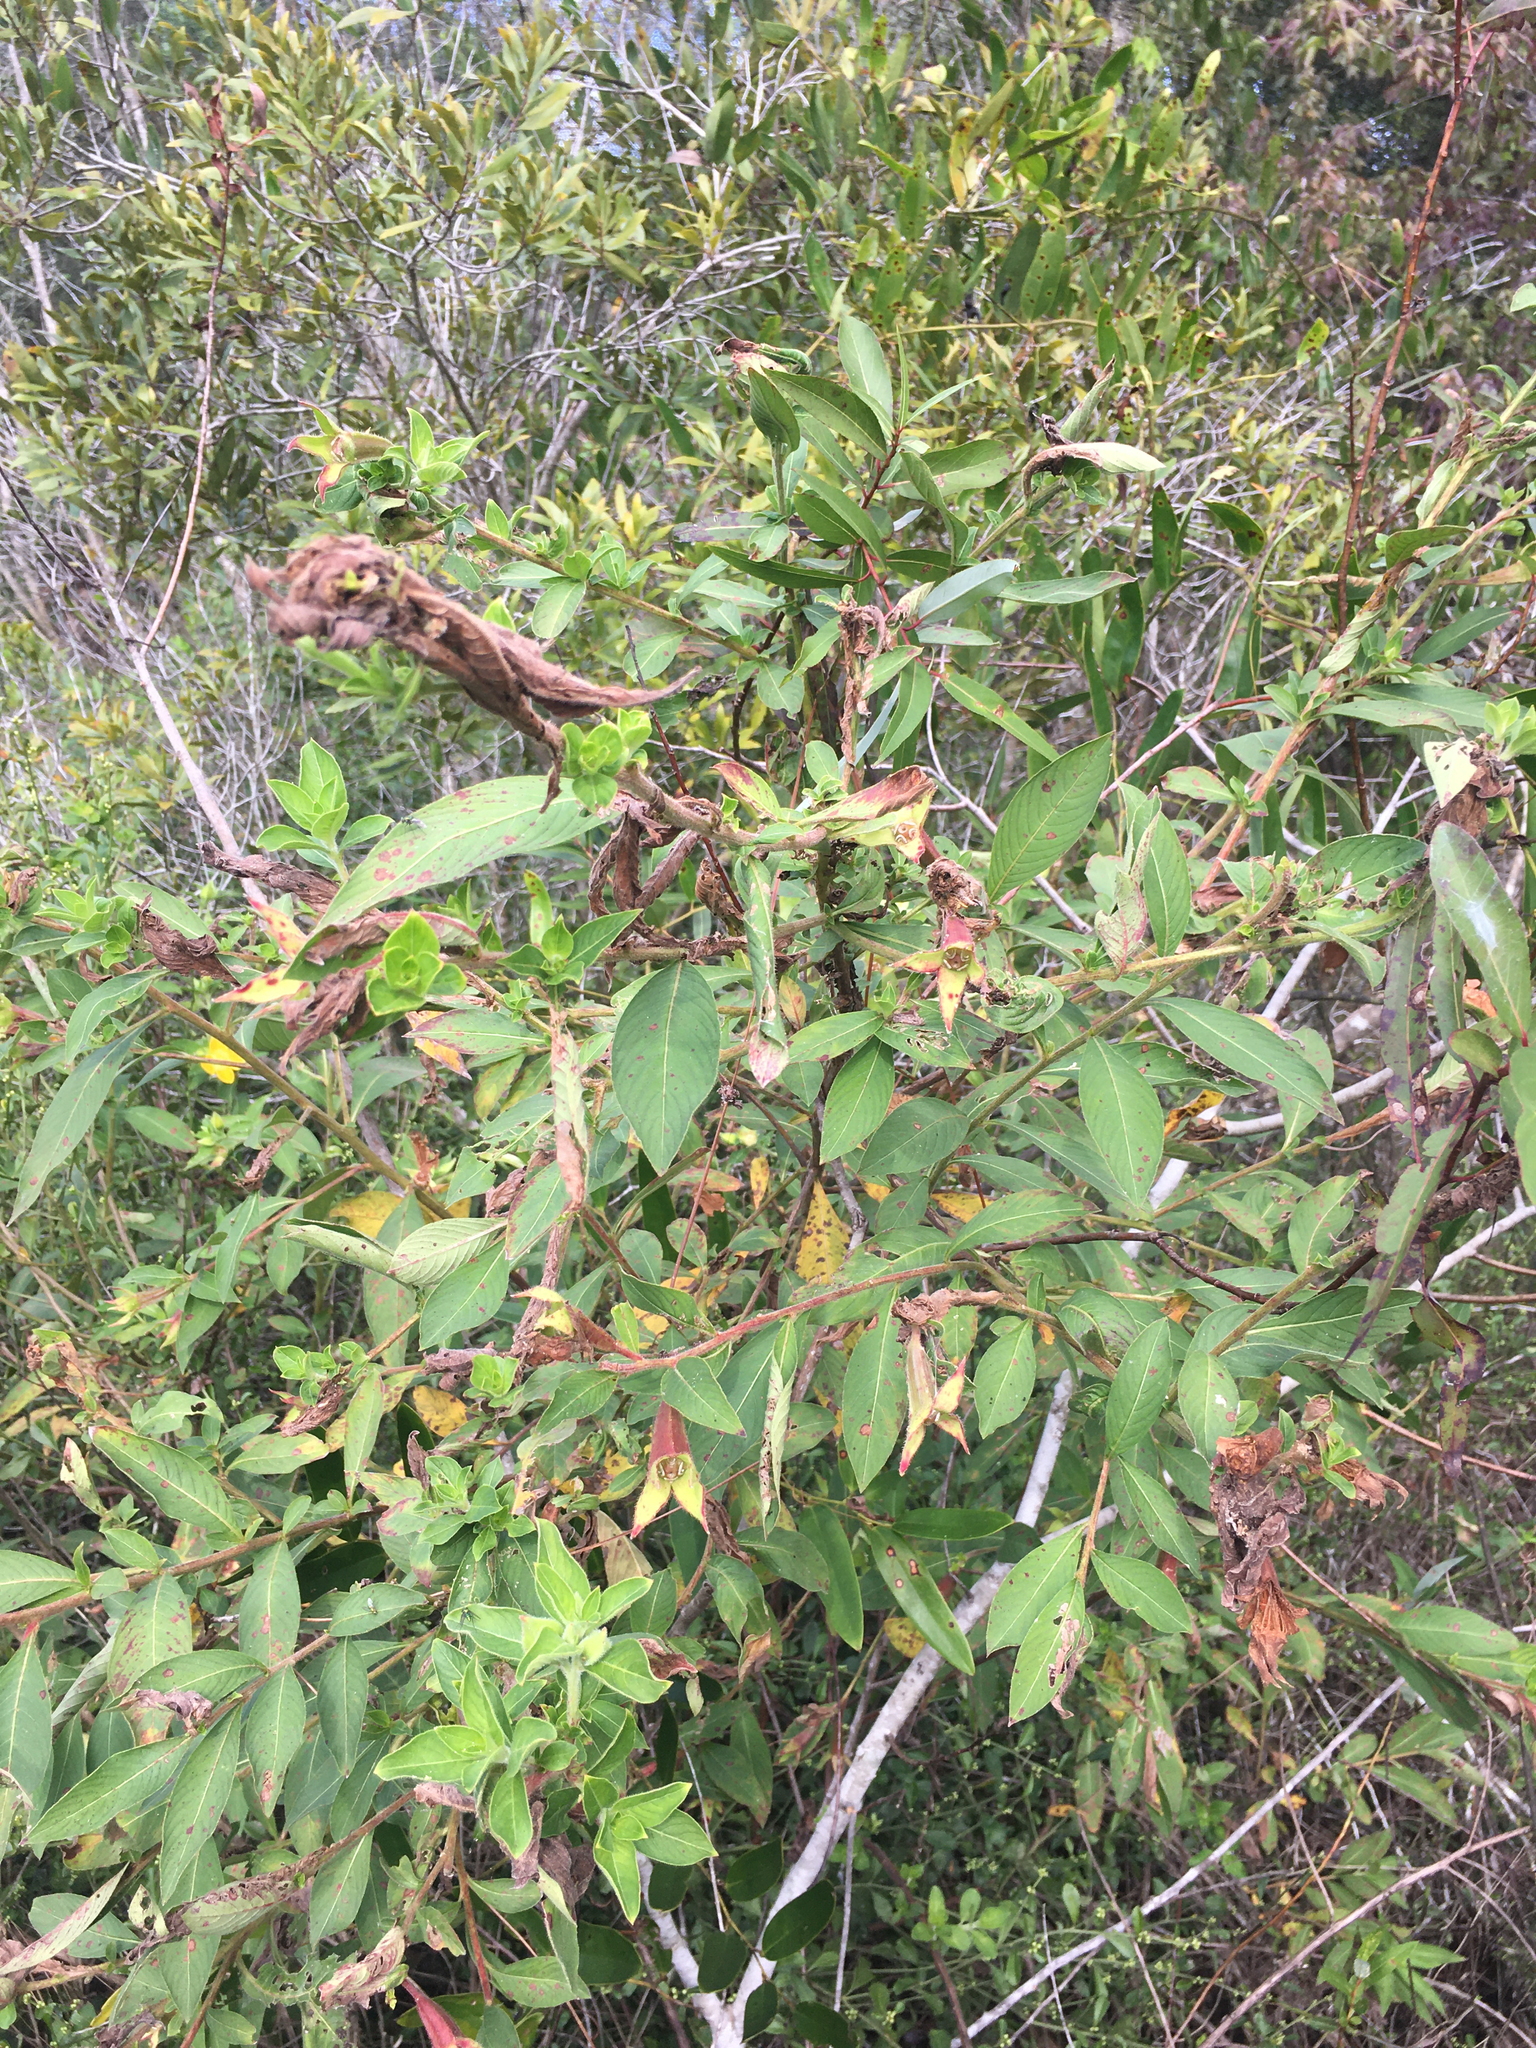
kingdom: Plantae
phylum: Tracheophyta
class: Magnoliopsida
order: Myrtales
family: Onagraceae
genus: Ludwigia
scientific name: Ludwigia peruviana
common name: Peruvian primrose-willow
